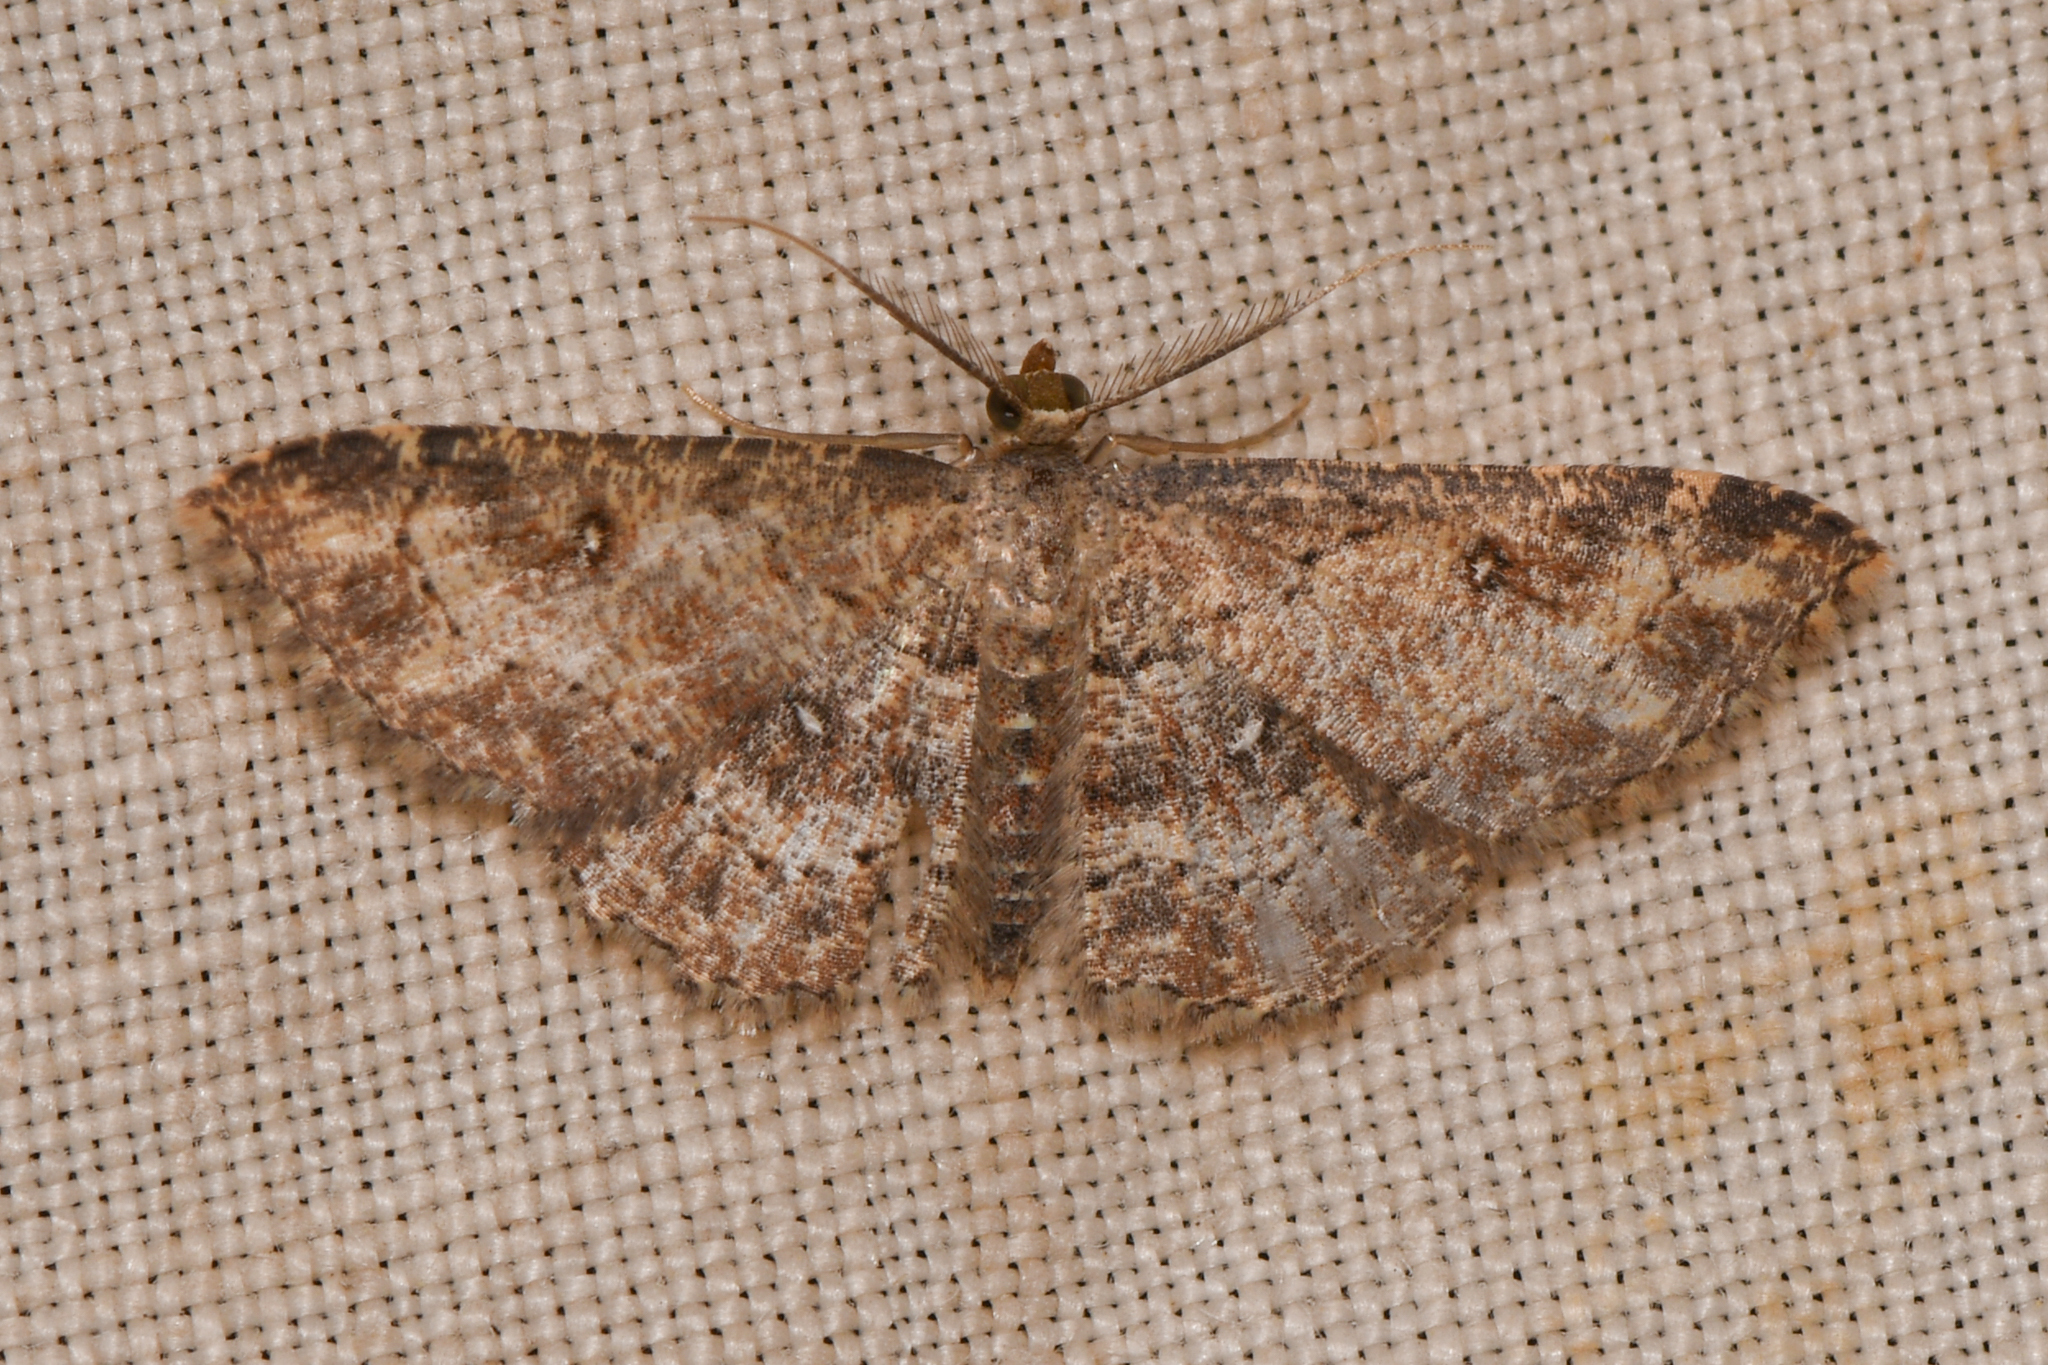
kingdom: Animalia
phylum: Arthropoda
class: Insecta
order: Lepidoptera
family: Geometridae
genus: Cyclophora
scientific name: Cyclophora nanaria
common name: Cankerworm
